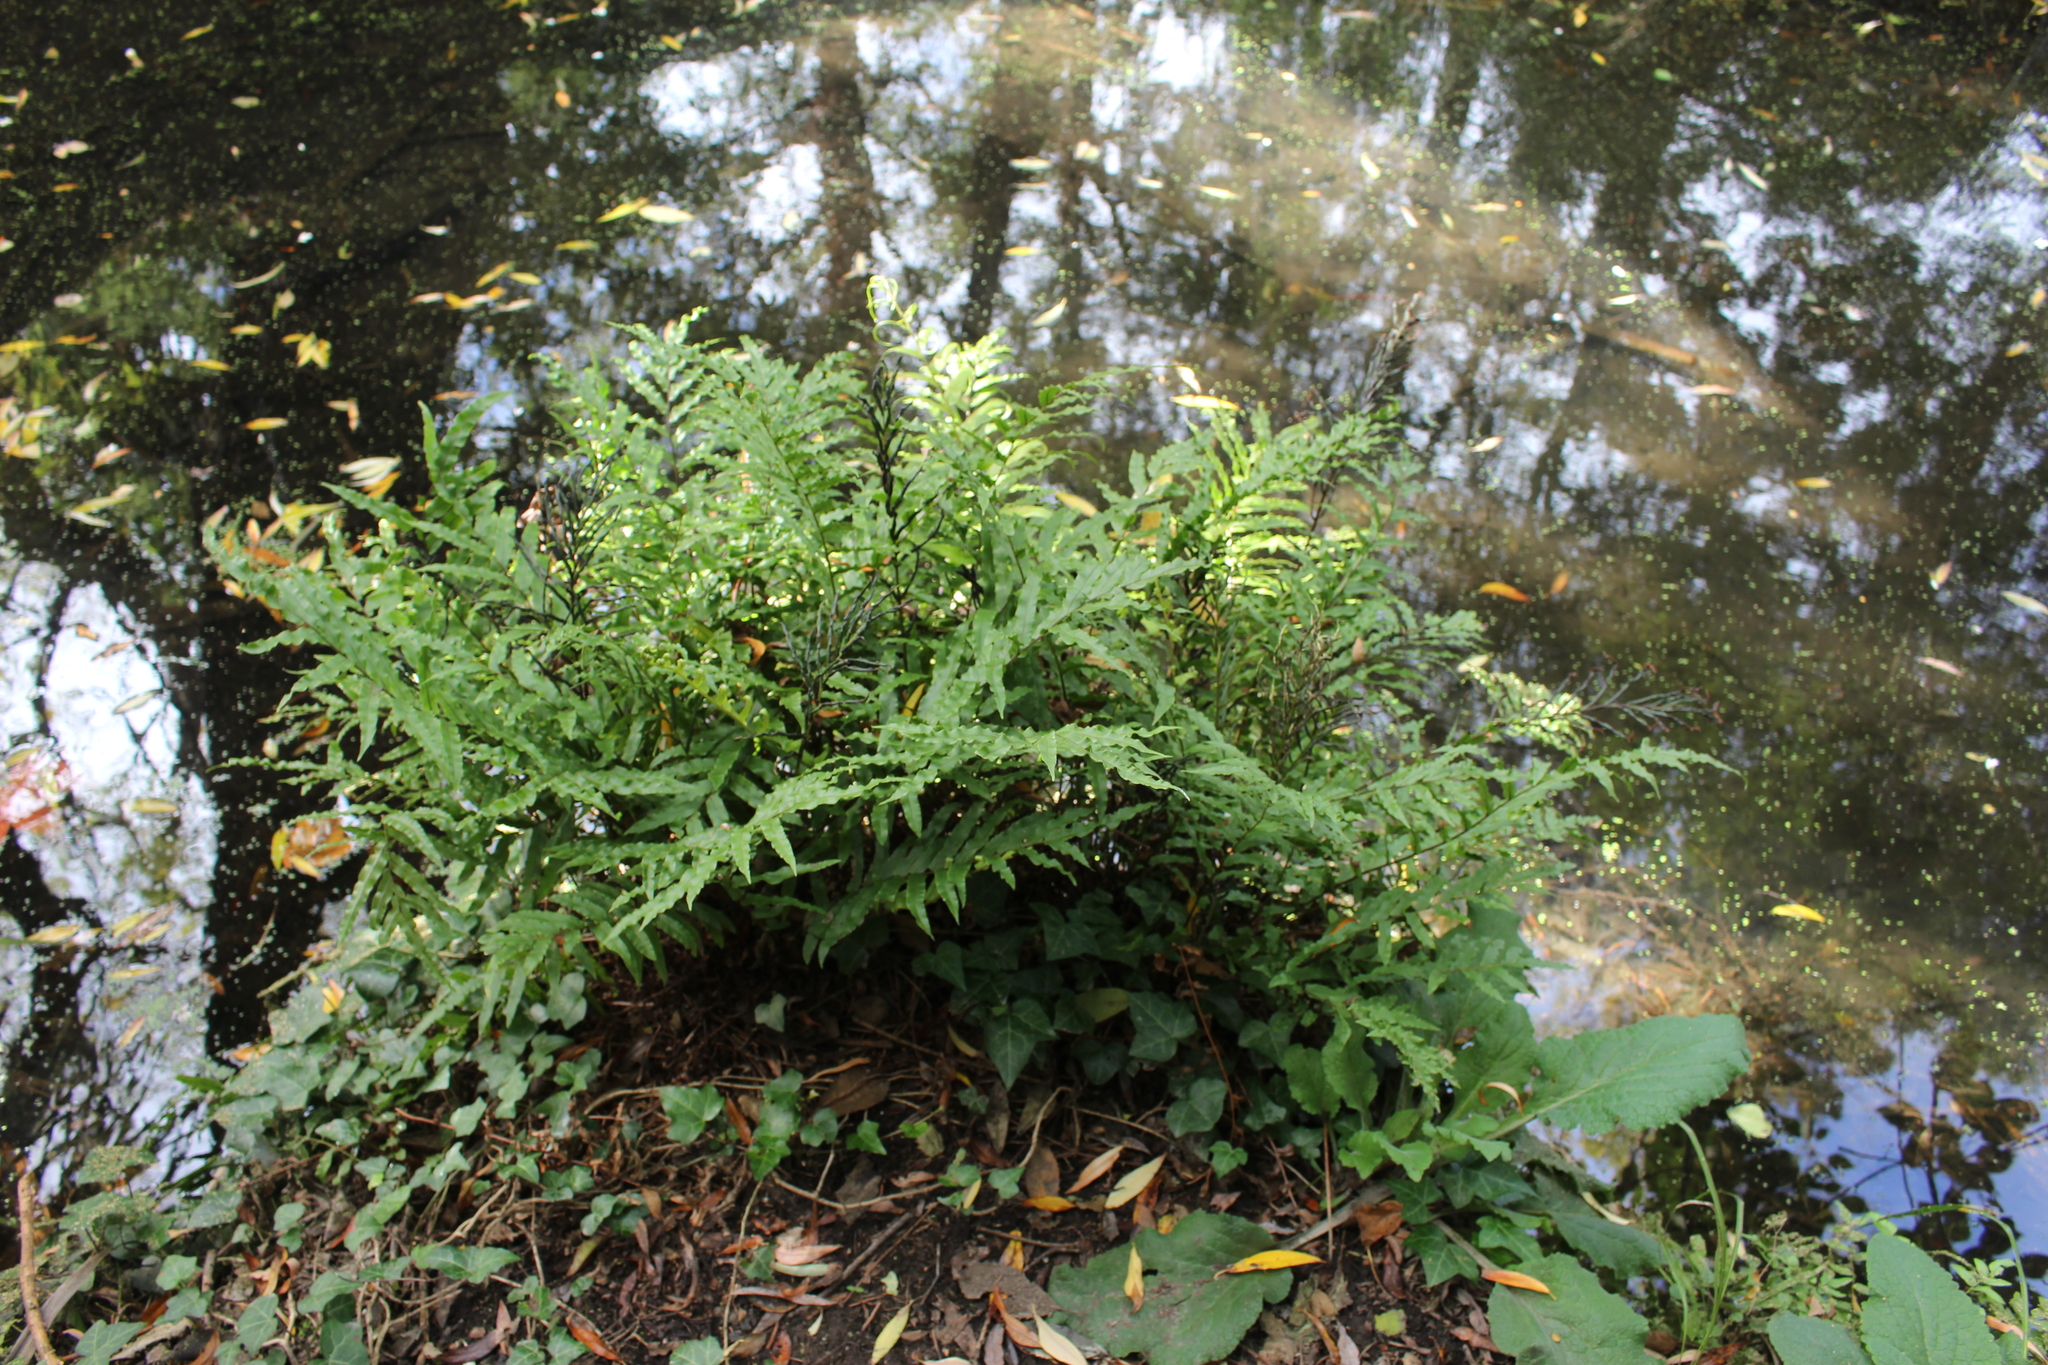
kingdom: Plantae
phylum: Tracheophyta
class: Polypodiopsida
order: Polypodiales
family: Blechnaceae
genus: Parablechnum
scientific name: Parablechnum minus
